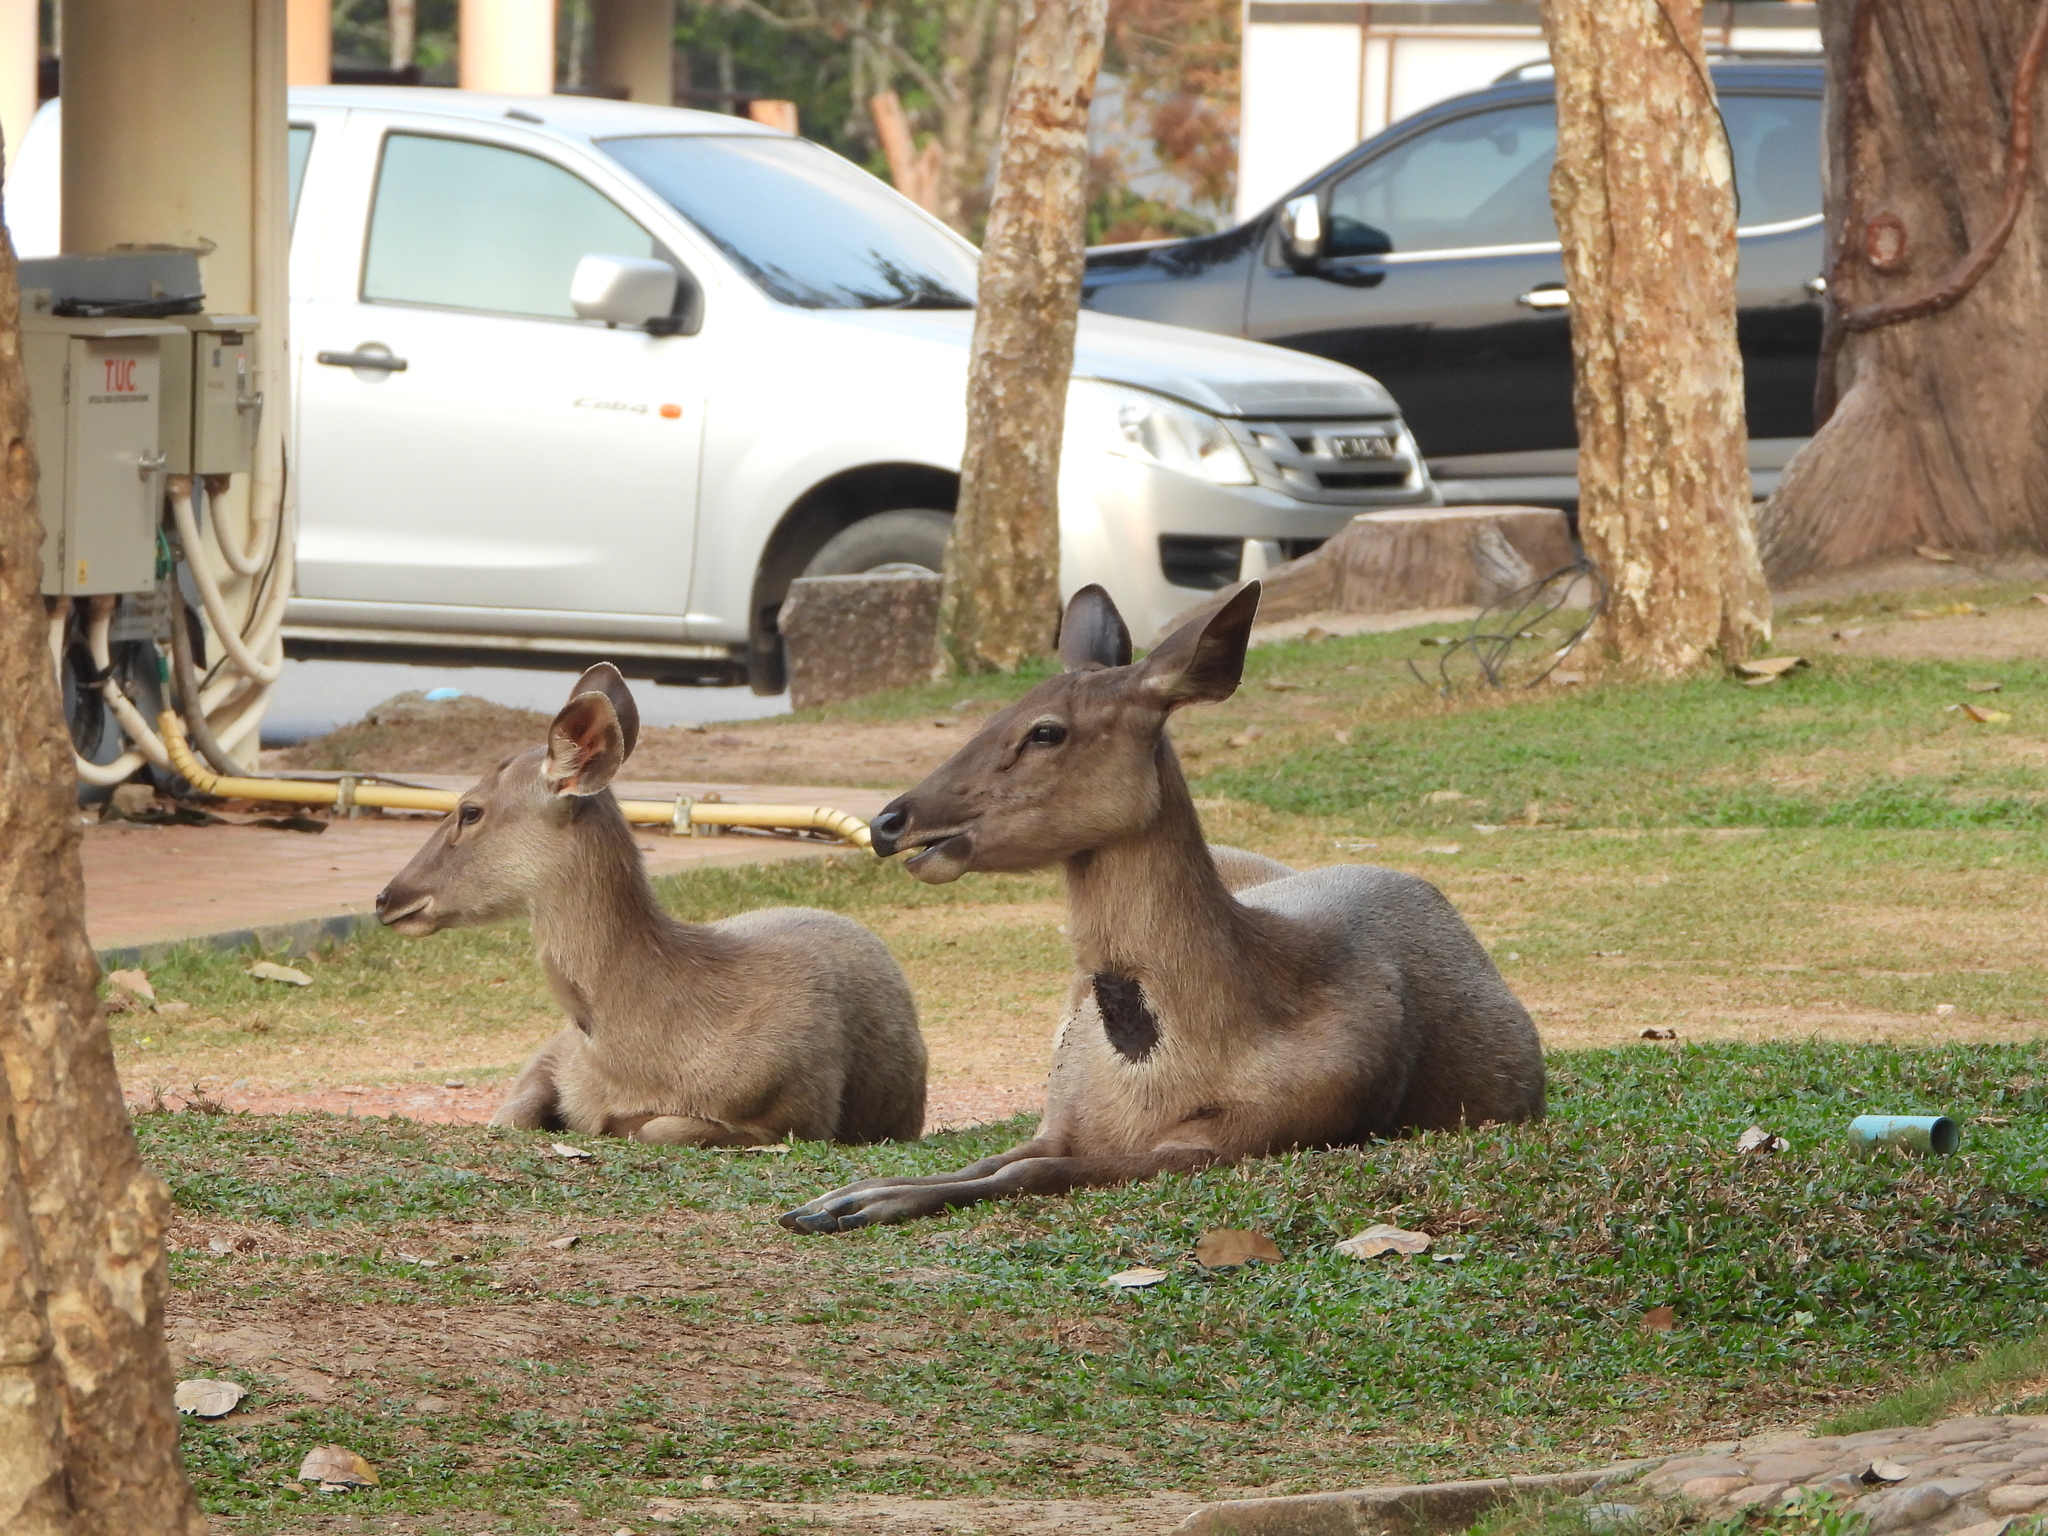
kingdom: Animalia
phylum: Chordata
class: Mammalia
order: Artiodactyla
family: Cervidae
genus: Rusa
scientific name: Rusa unicolor
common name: Sambar
